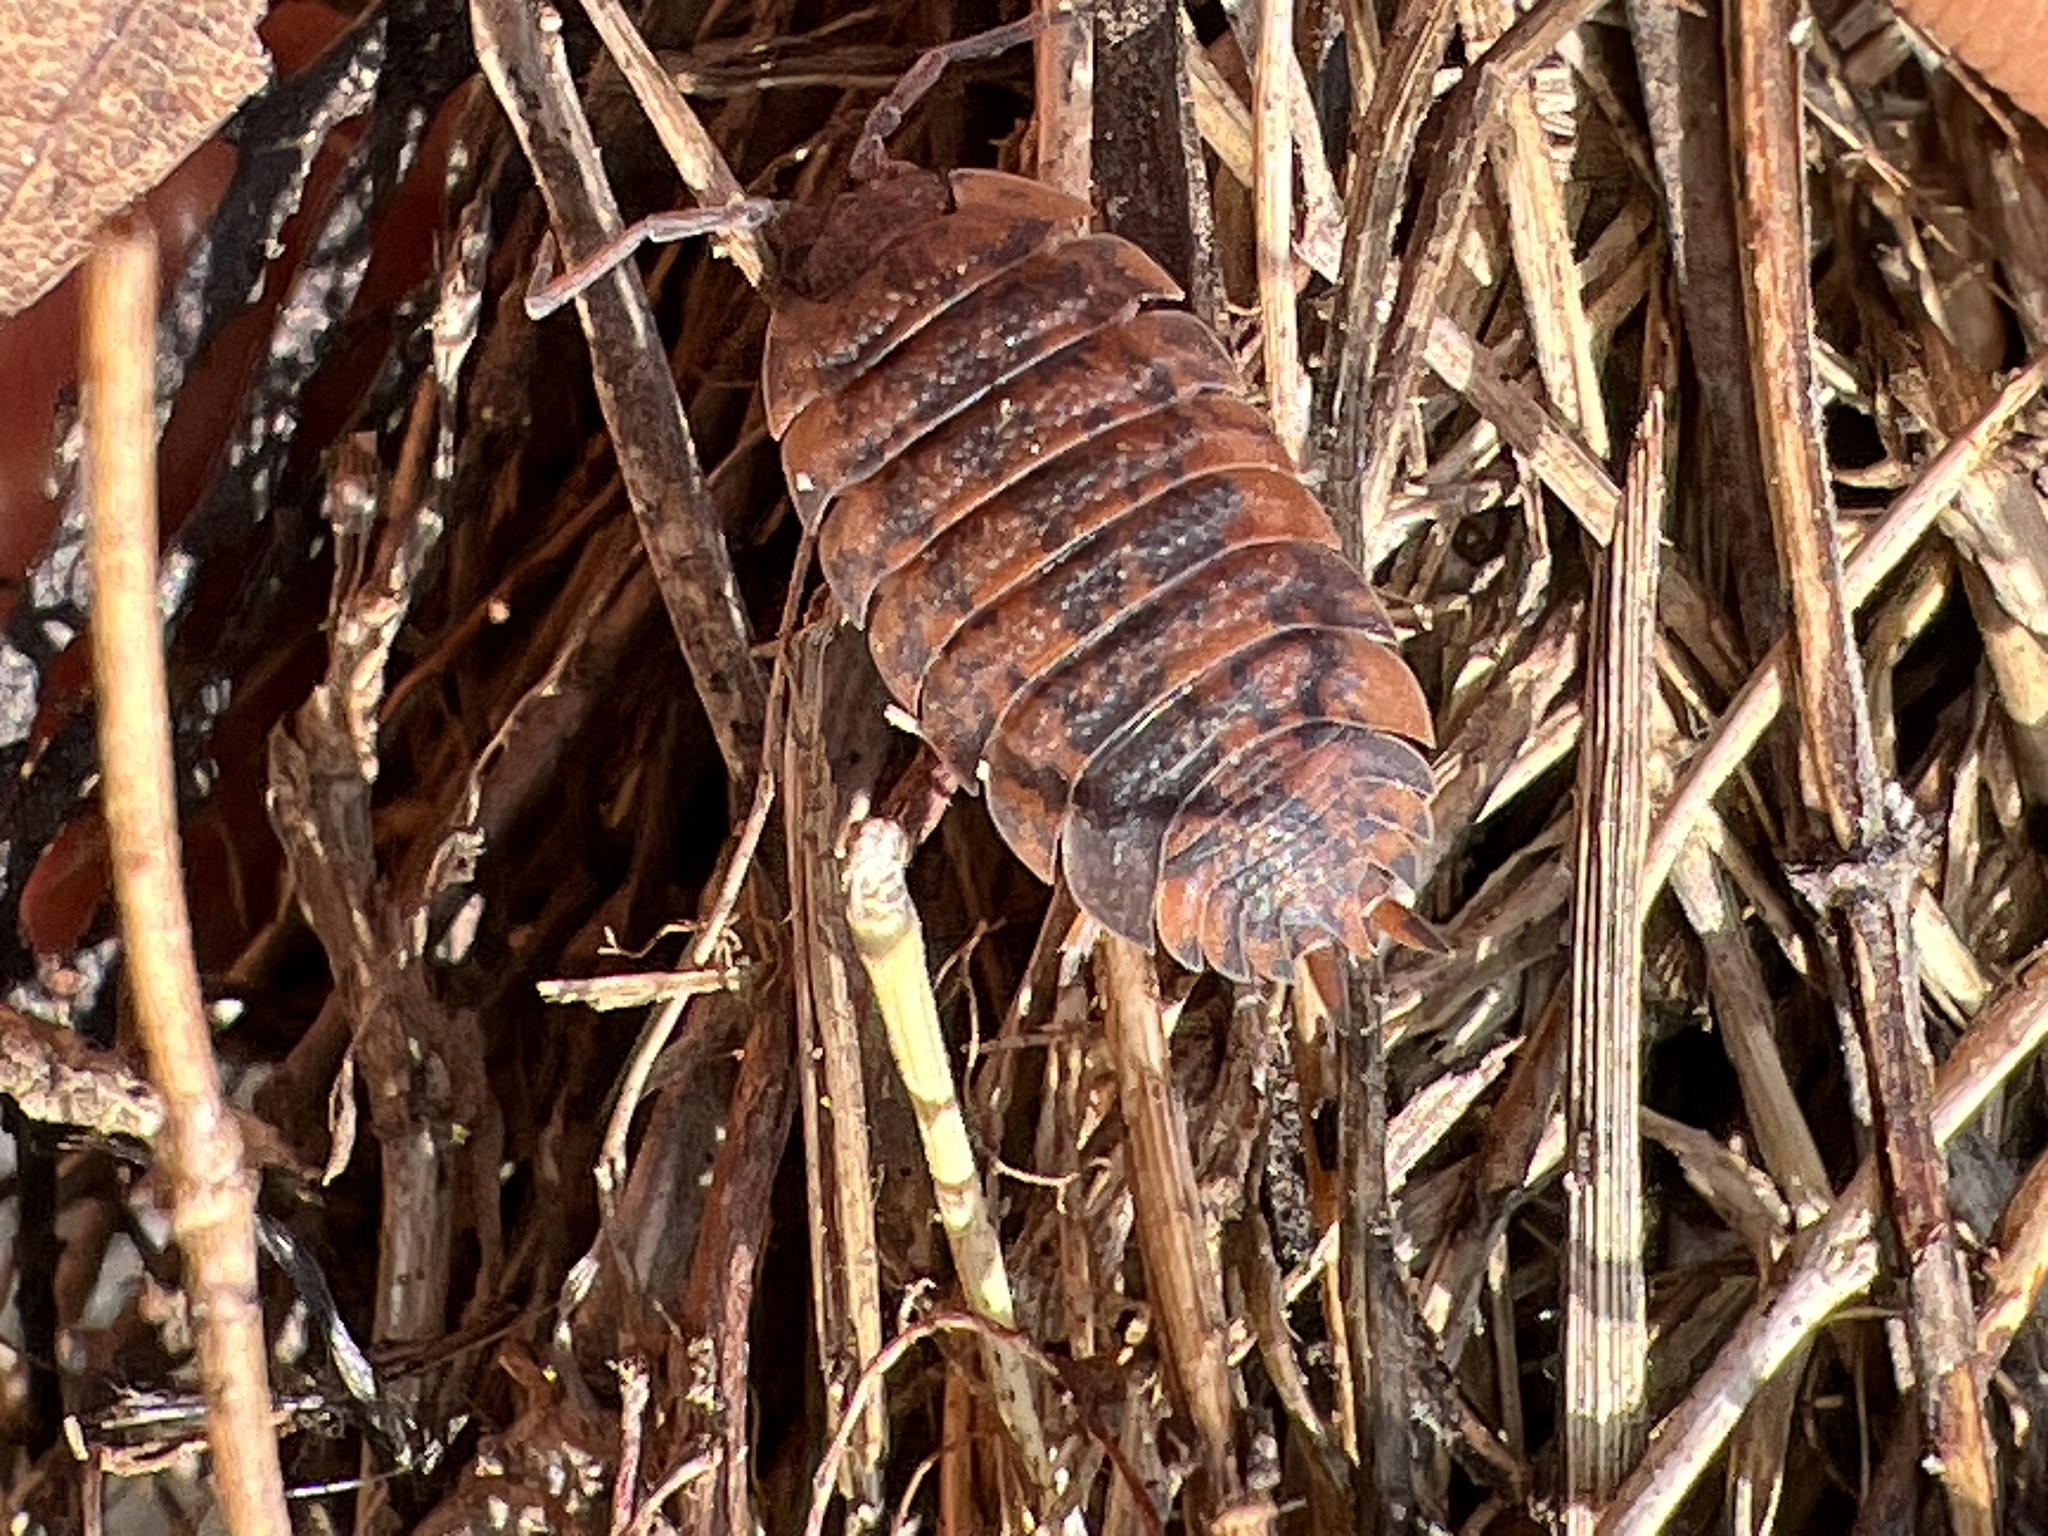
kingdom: Animalia
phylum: Arthropoda
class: Malacostraca
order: Isopoda
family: Porcellionidae
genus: Porcellio
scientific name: Porcellio scaber
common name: Common rough woodlouse
